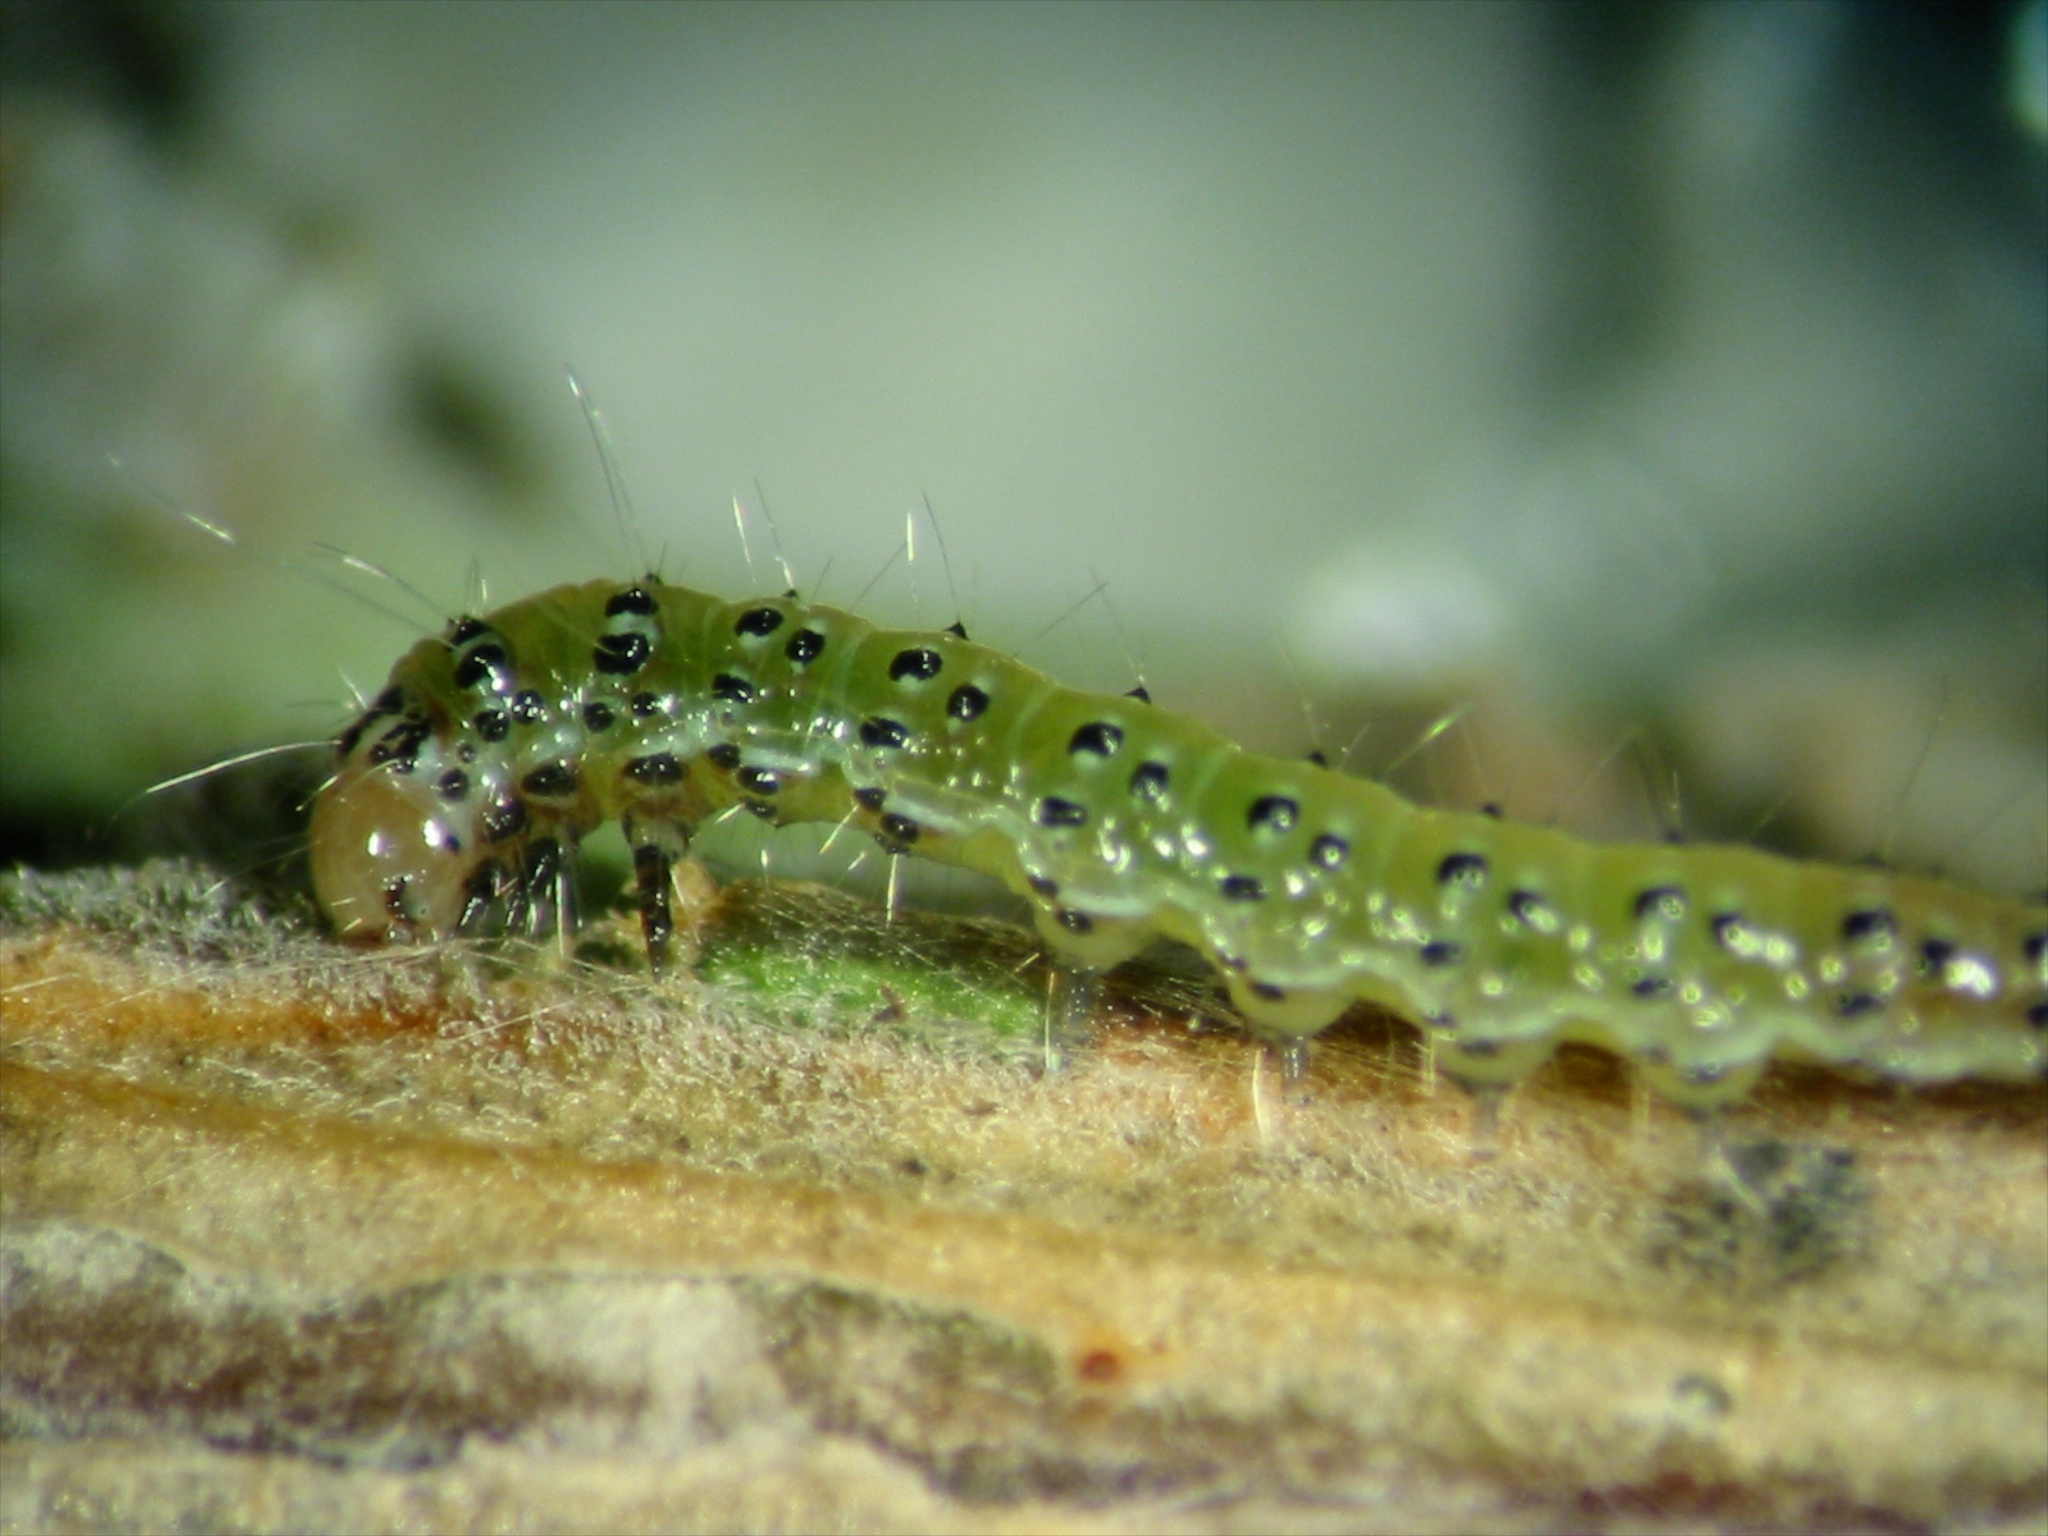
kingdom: Animalia
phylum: Arthropoda
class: Insecta
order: Lepidoptera
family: Crambidae
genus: Uresiphita
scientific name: Uresiphita
